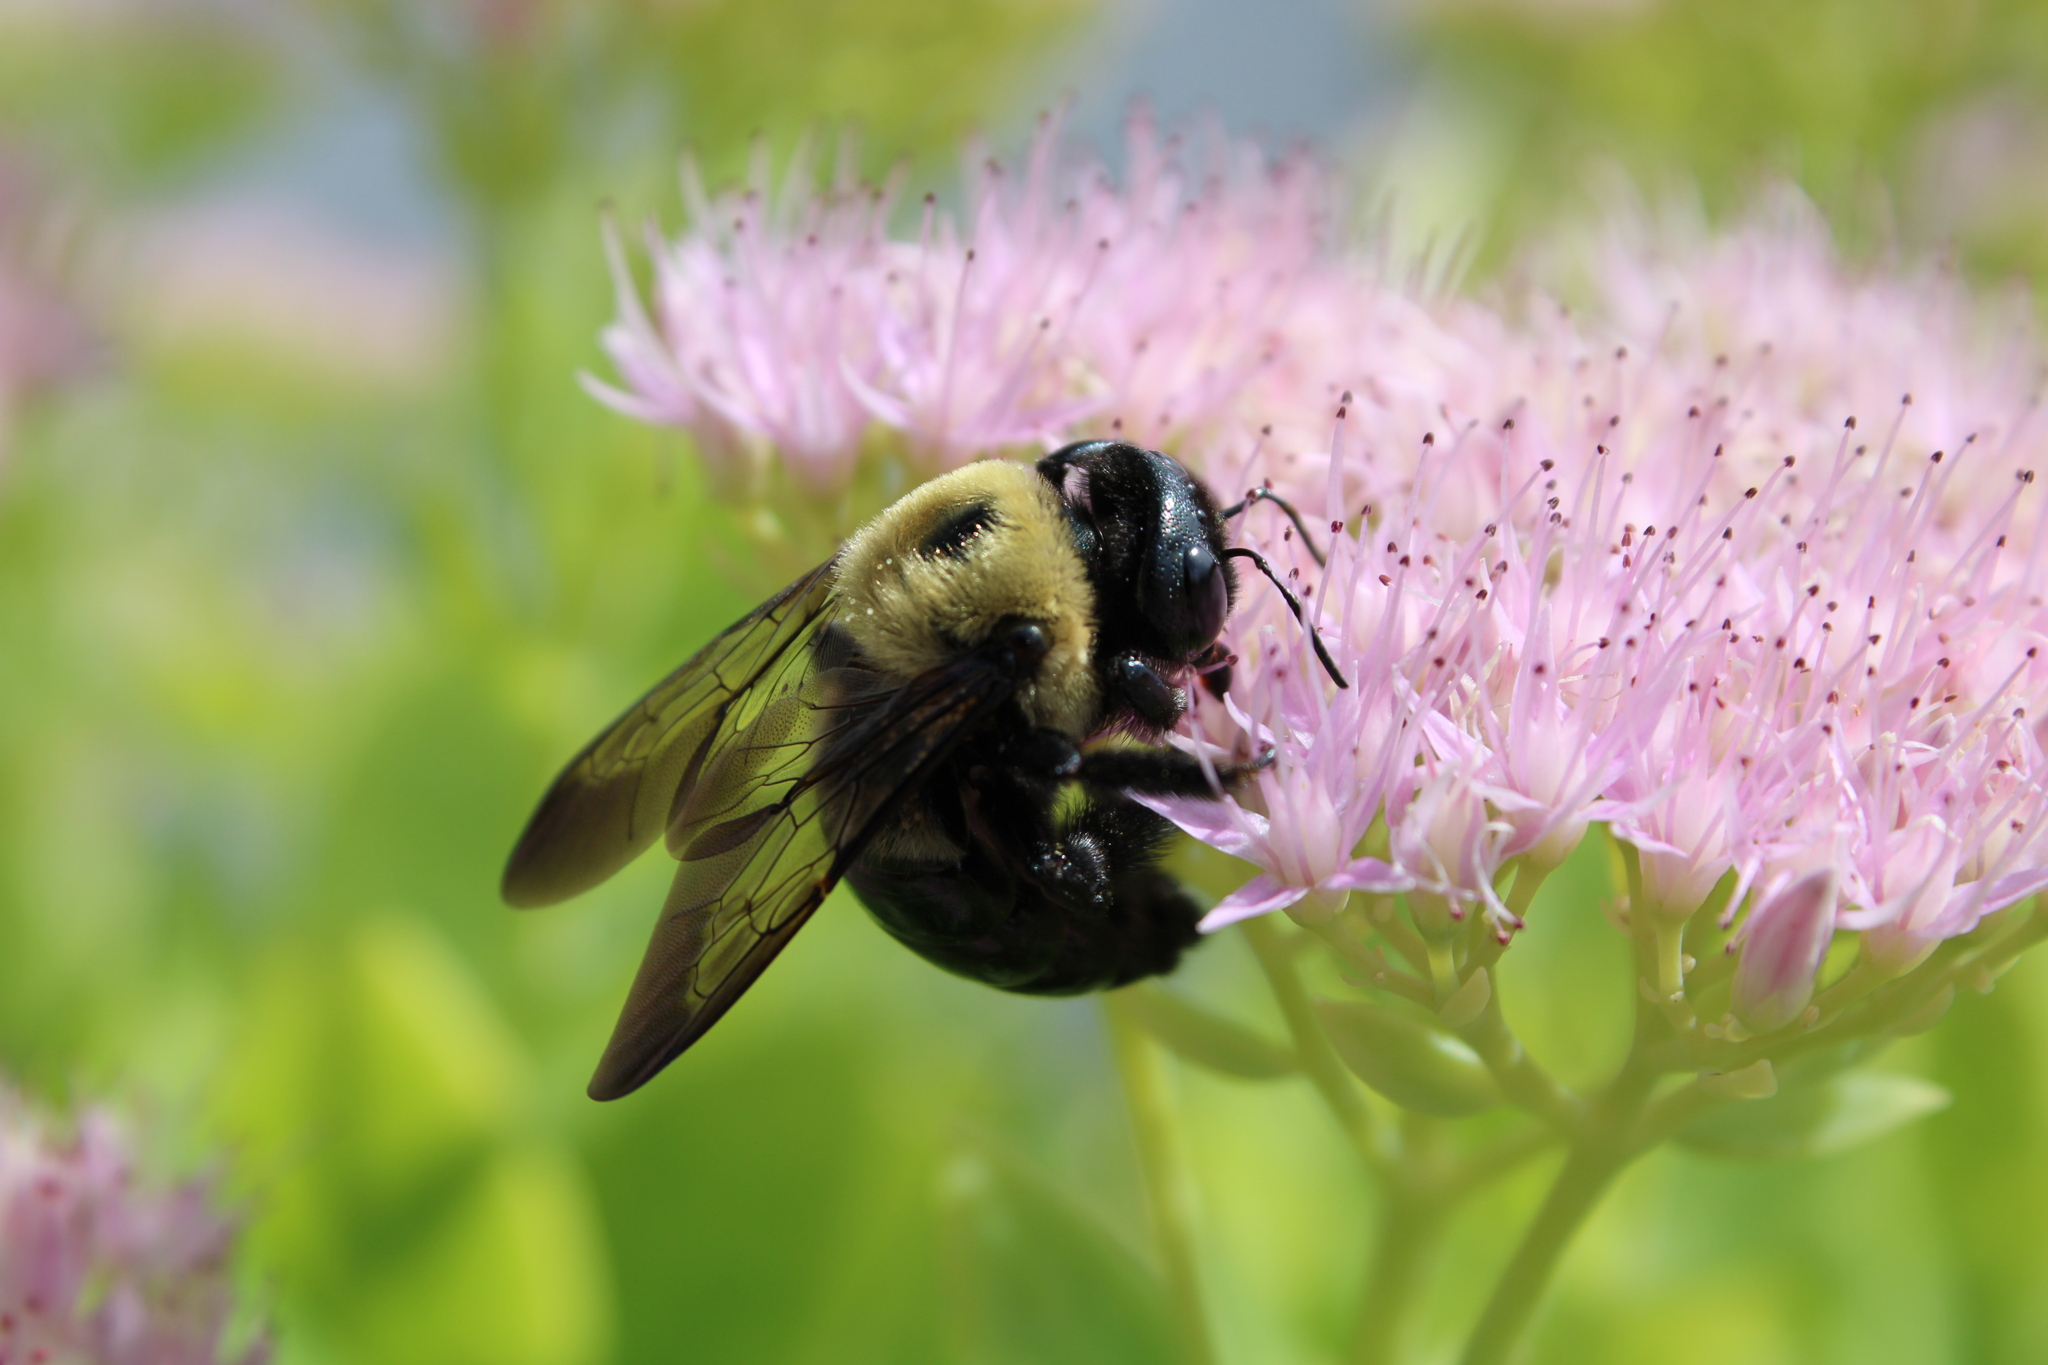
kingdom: Animalia
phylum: Arthropoda
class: Insecta
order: Hymenoptera
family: Apidae
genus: Xylocopa
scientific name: Xylocopa virginica
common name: Carpenter bee
